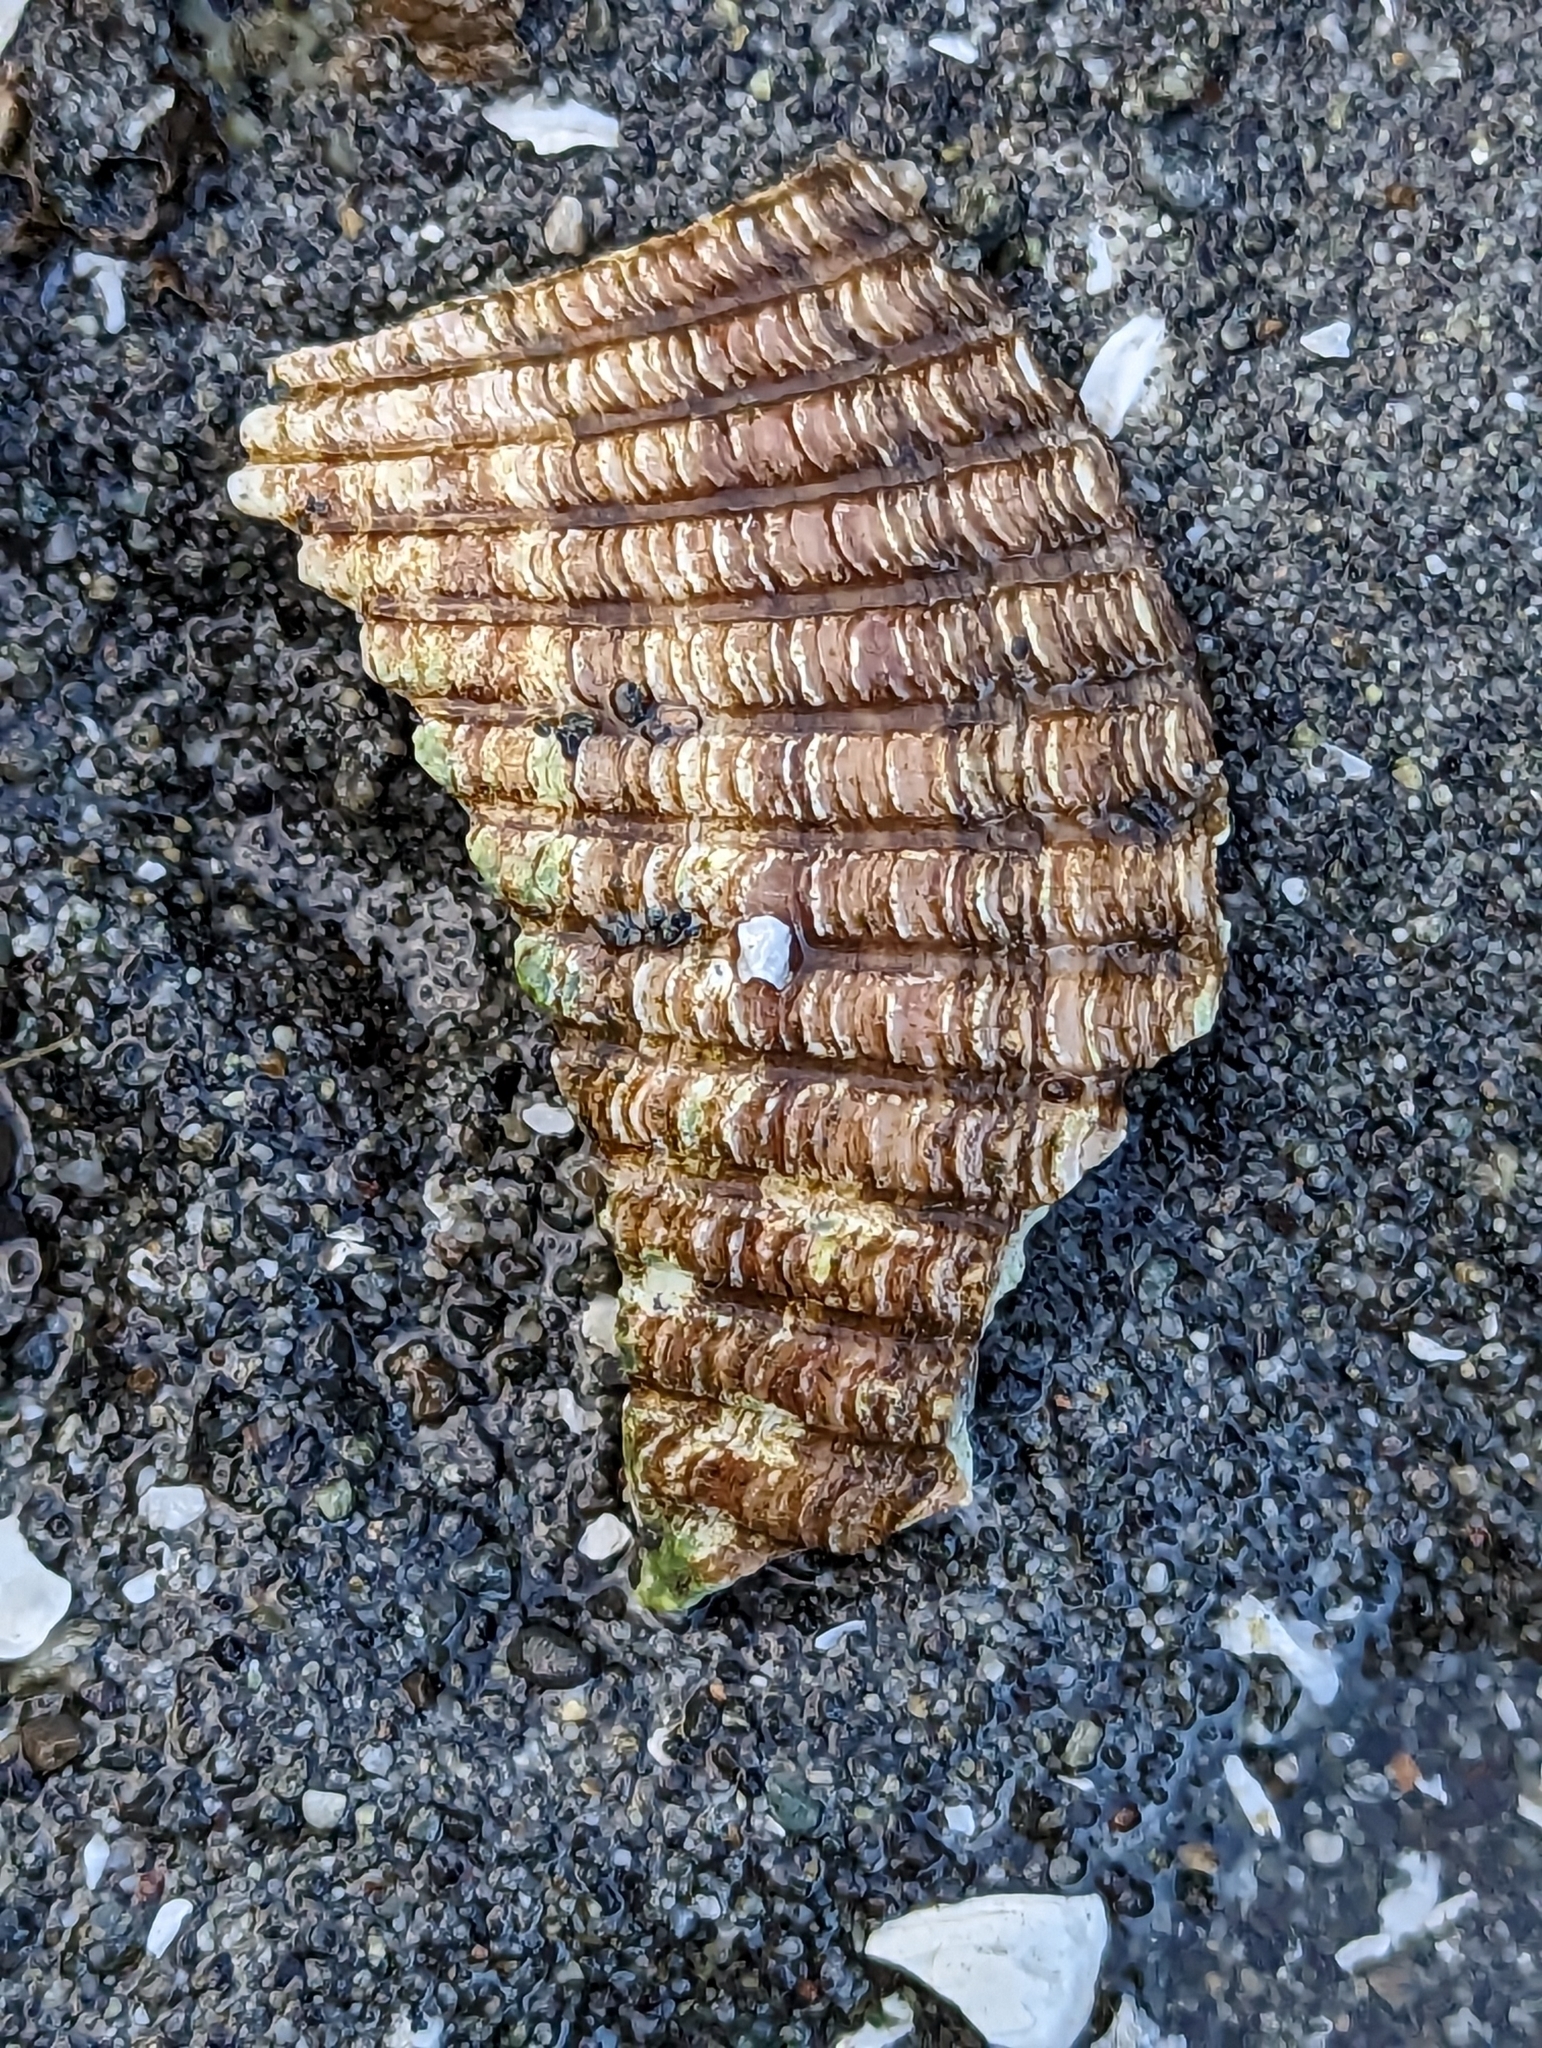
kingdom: Animalia
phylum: Mollusca
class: Bivalvia
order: Cardiida
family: Cardiidae
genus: Clinocardium
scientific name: Clinocardium nuttallii
